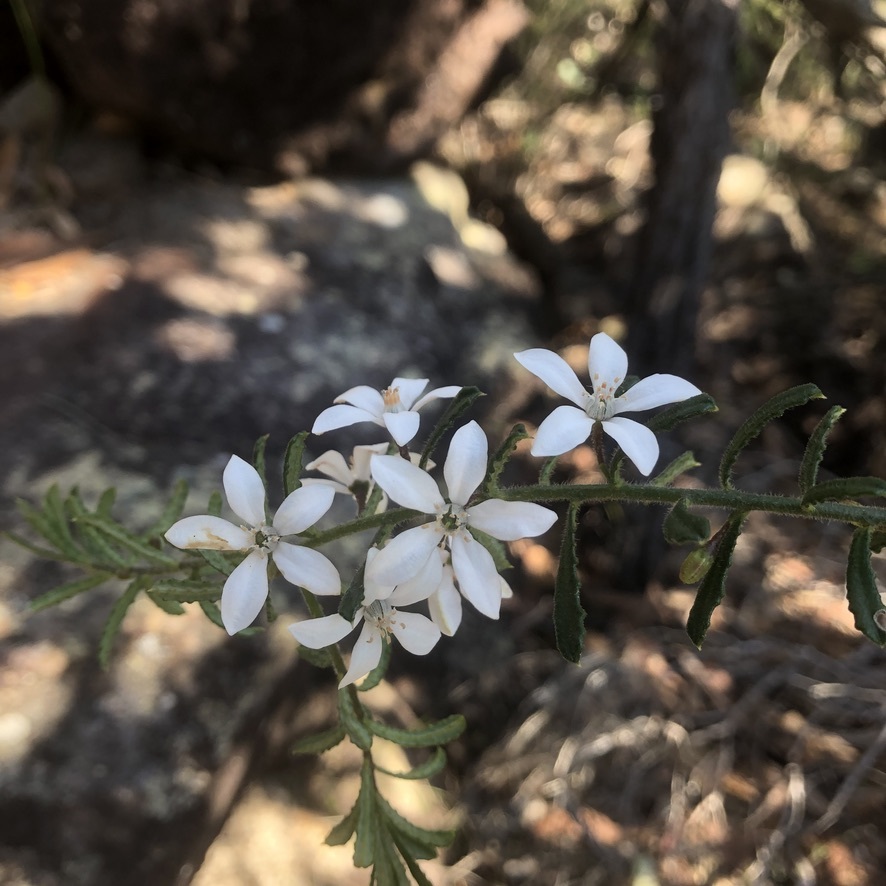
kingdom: Plantae
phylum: Tracheophyta
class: Magnoliopsida
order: Sapindales
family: Rutaceae
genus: Philotheca
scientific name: Philotheca hispidula
